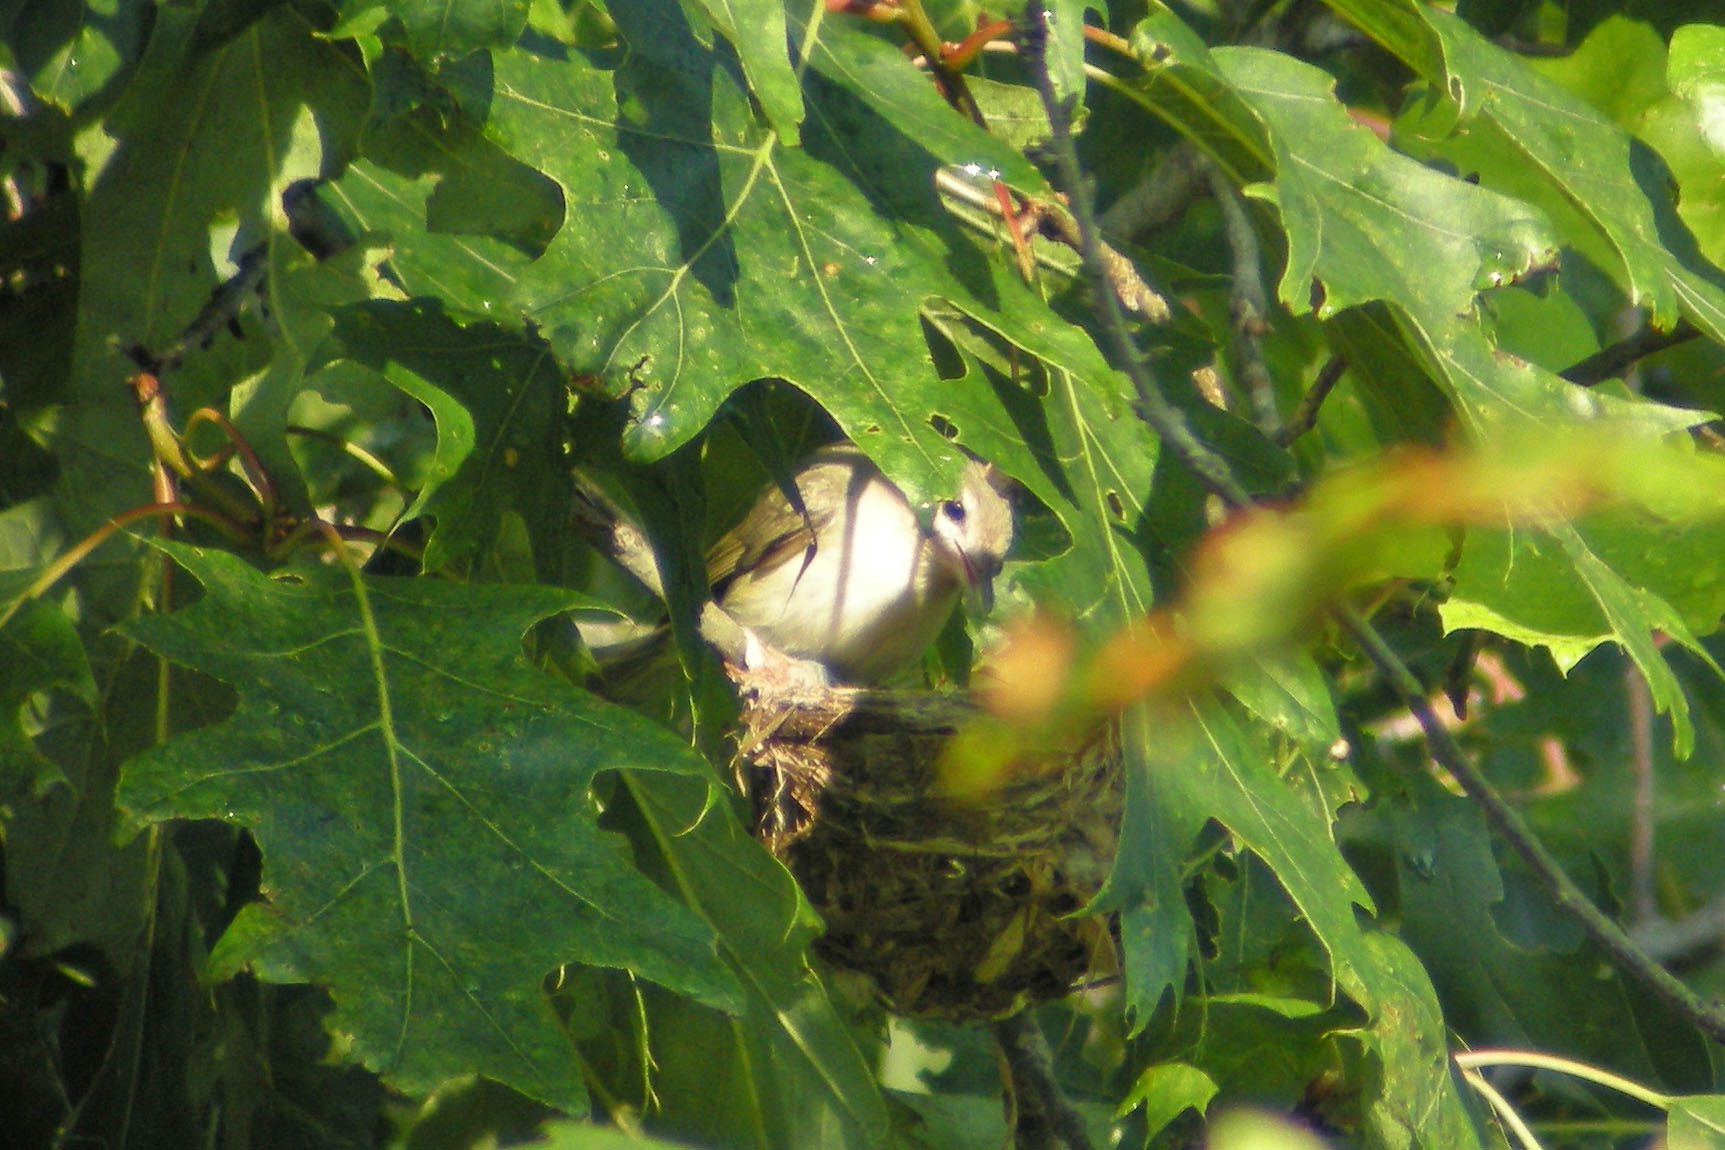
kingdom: Animalia
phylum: Chordata
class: Aves
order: Passeriformes
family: Vireonidae
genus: Vireo
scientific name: Vireo gilvus
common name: Warbling vireo
